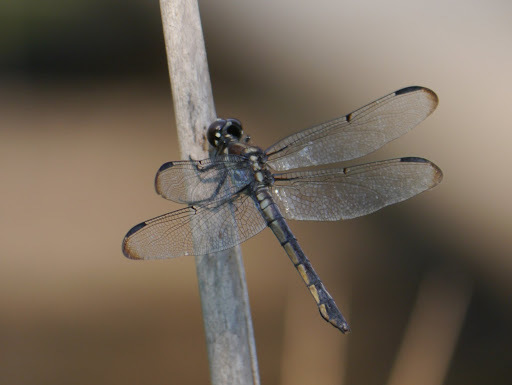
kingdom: Animalia
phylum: Arthropoda
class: Insecta
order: Odonata
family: Libellulidae
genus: Libellula
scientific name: Libellula incesta
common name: Slaty skimmer
